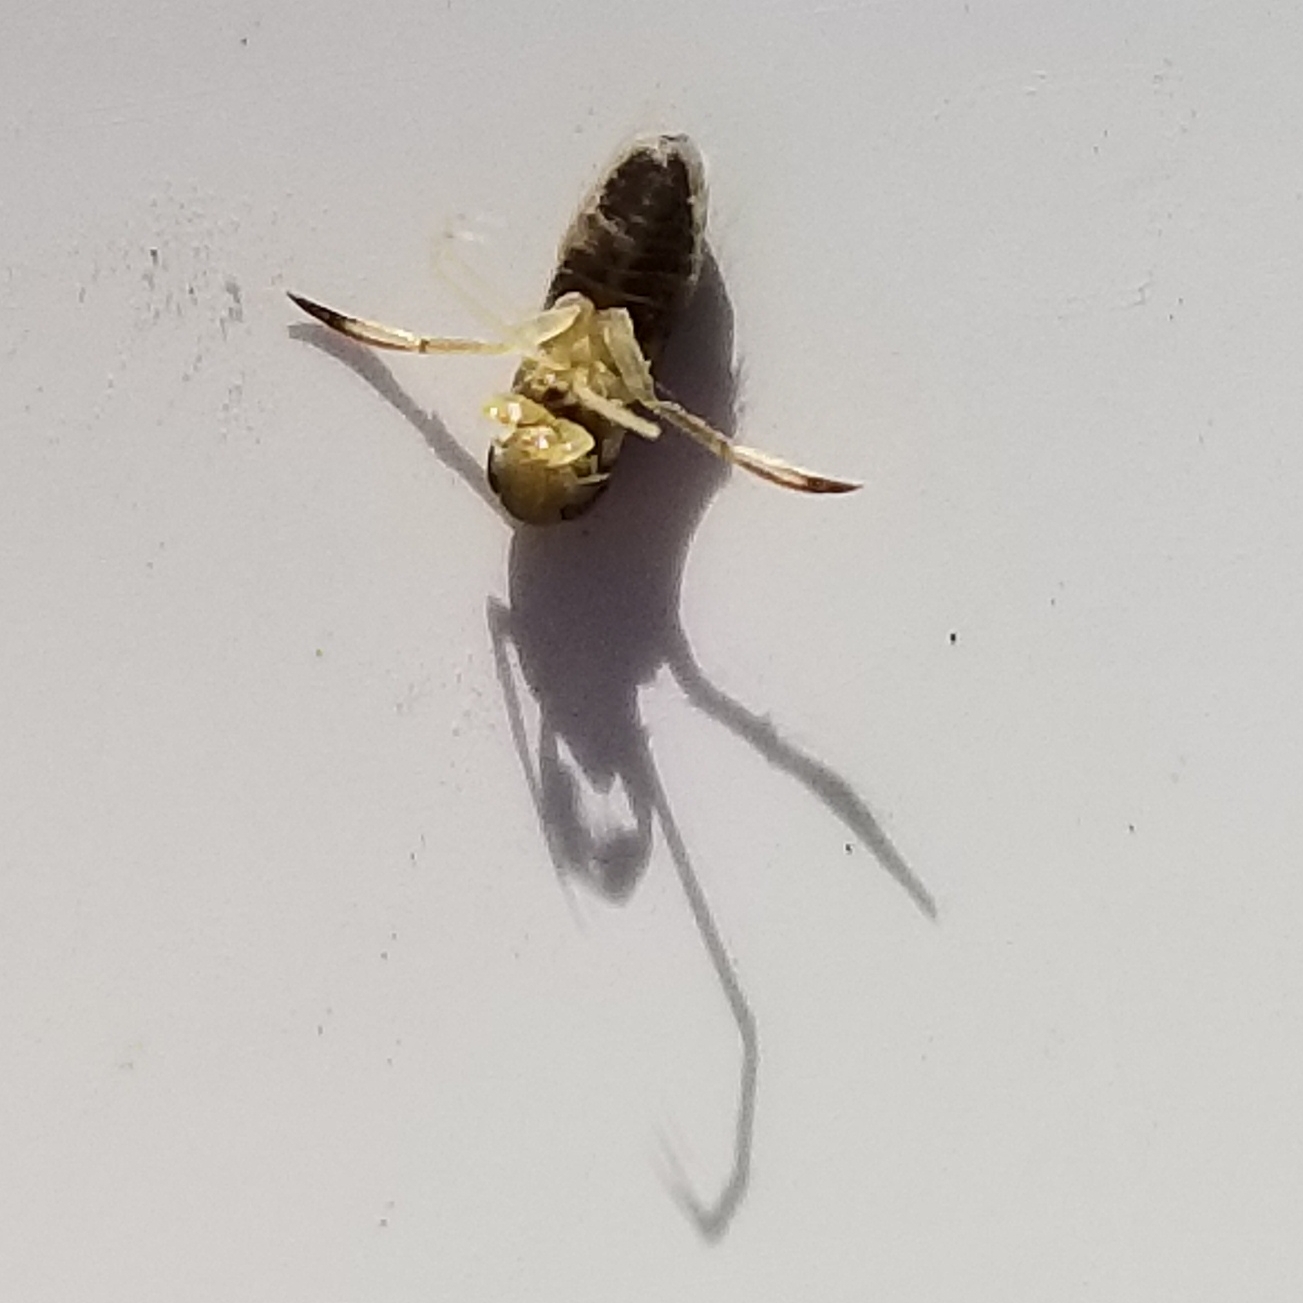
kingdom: Animalia
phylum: Arthropoda
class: Insecta
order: Hemiptera
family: Corixidae
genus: Trichocorixa
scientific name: Trichocorixa
